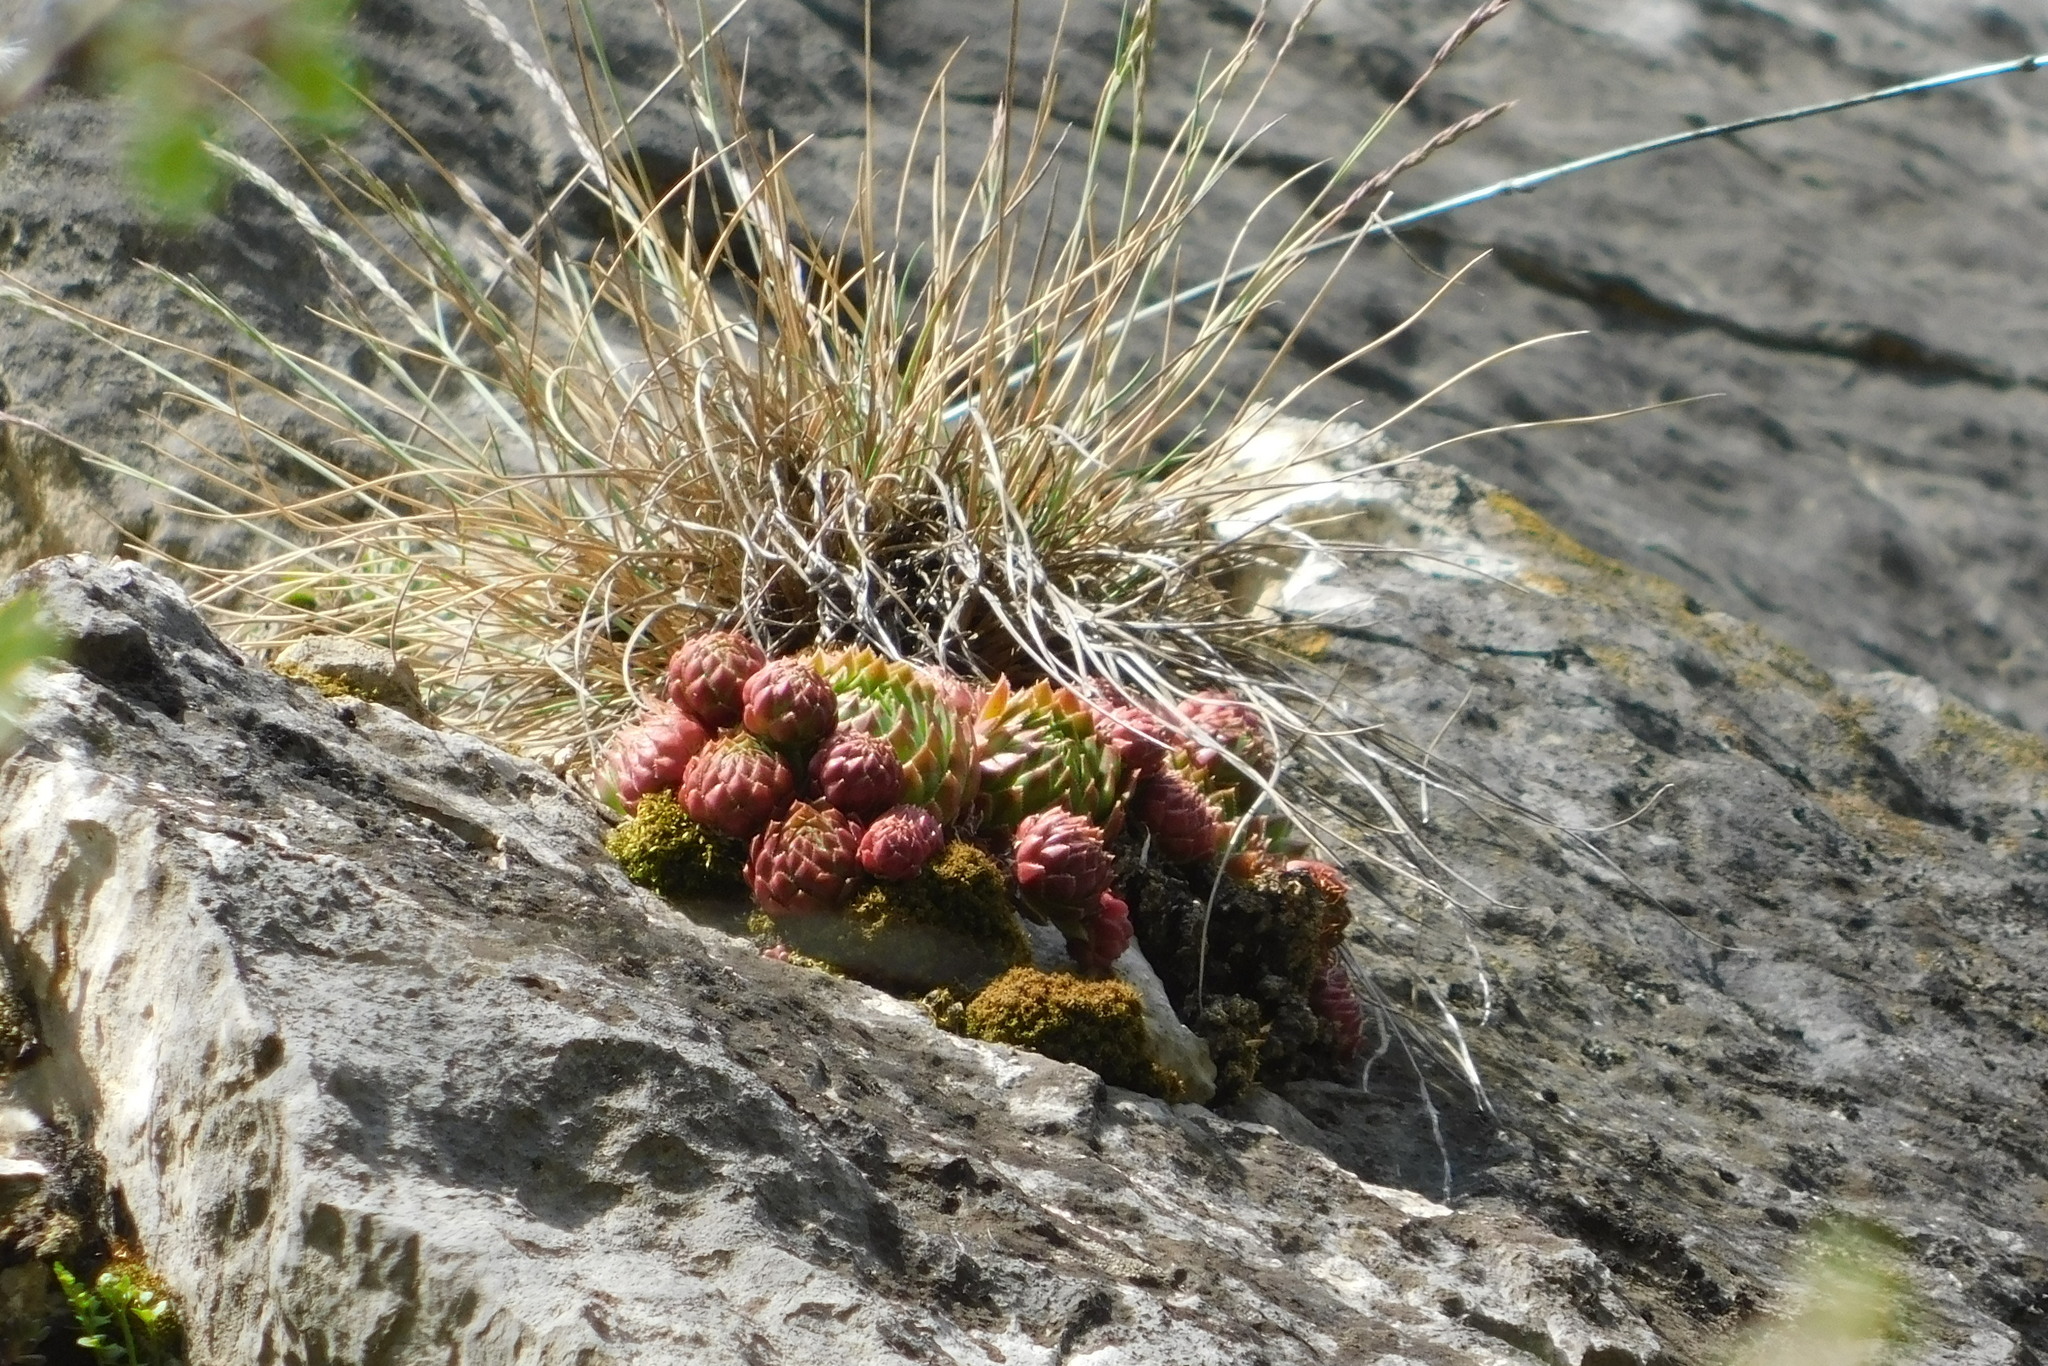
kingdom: Plantae
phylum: Tracheophyta
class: Magnoliopsida
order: Saxifragales
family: Crassulaceae
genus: Sempervivum
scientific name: Sempervivum globiferum
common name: Rolling hen-and-chicks
